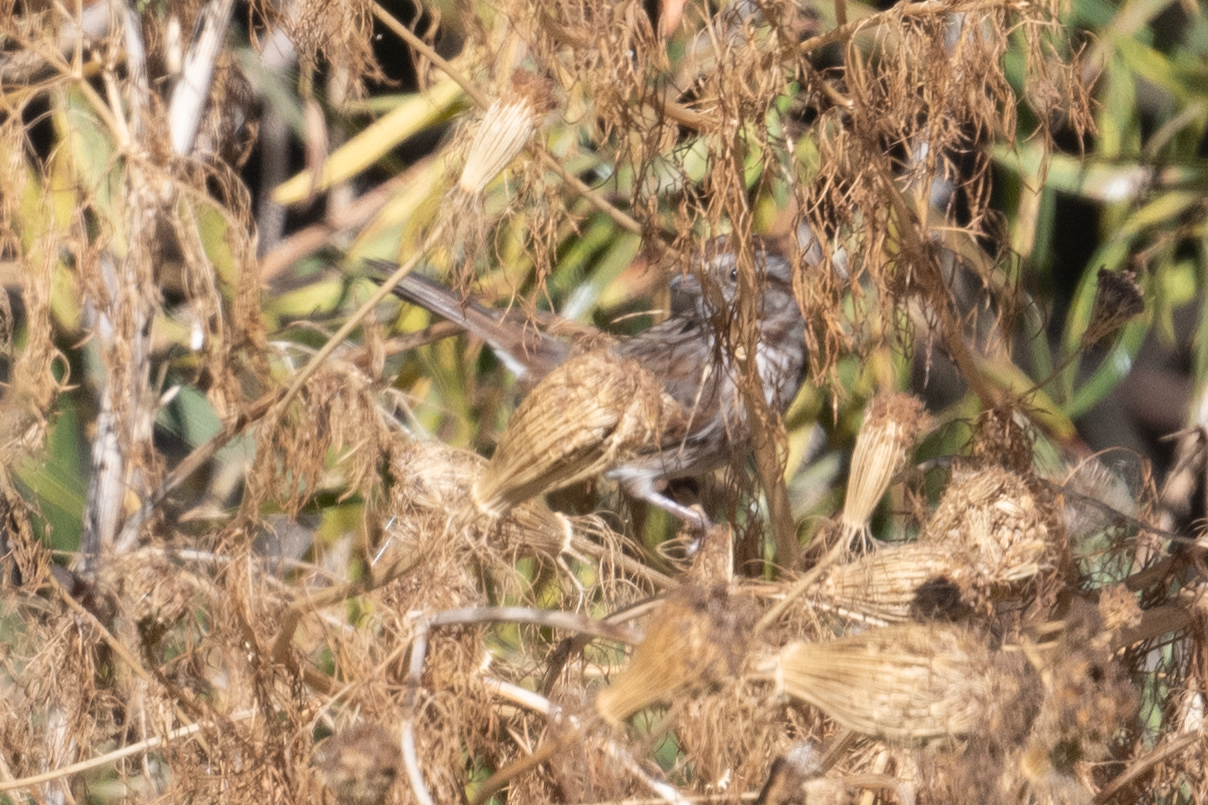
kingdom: Animalia
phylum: Chordata
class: Aves
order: Passeriformes
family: Passerellidae
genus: Melospiza
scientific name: Melospiza melodia
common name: Song sparrow
